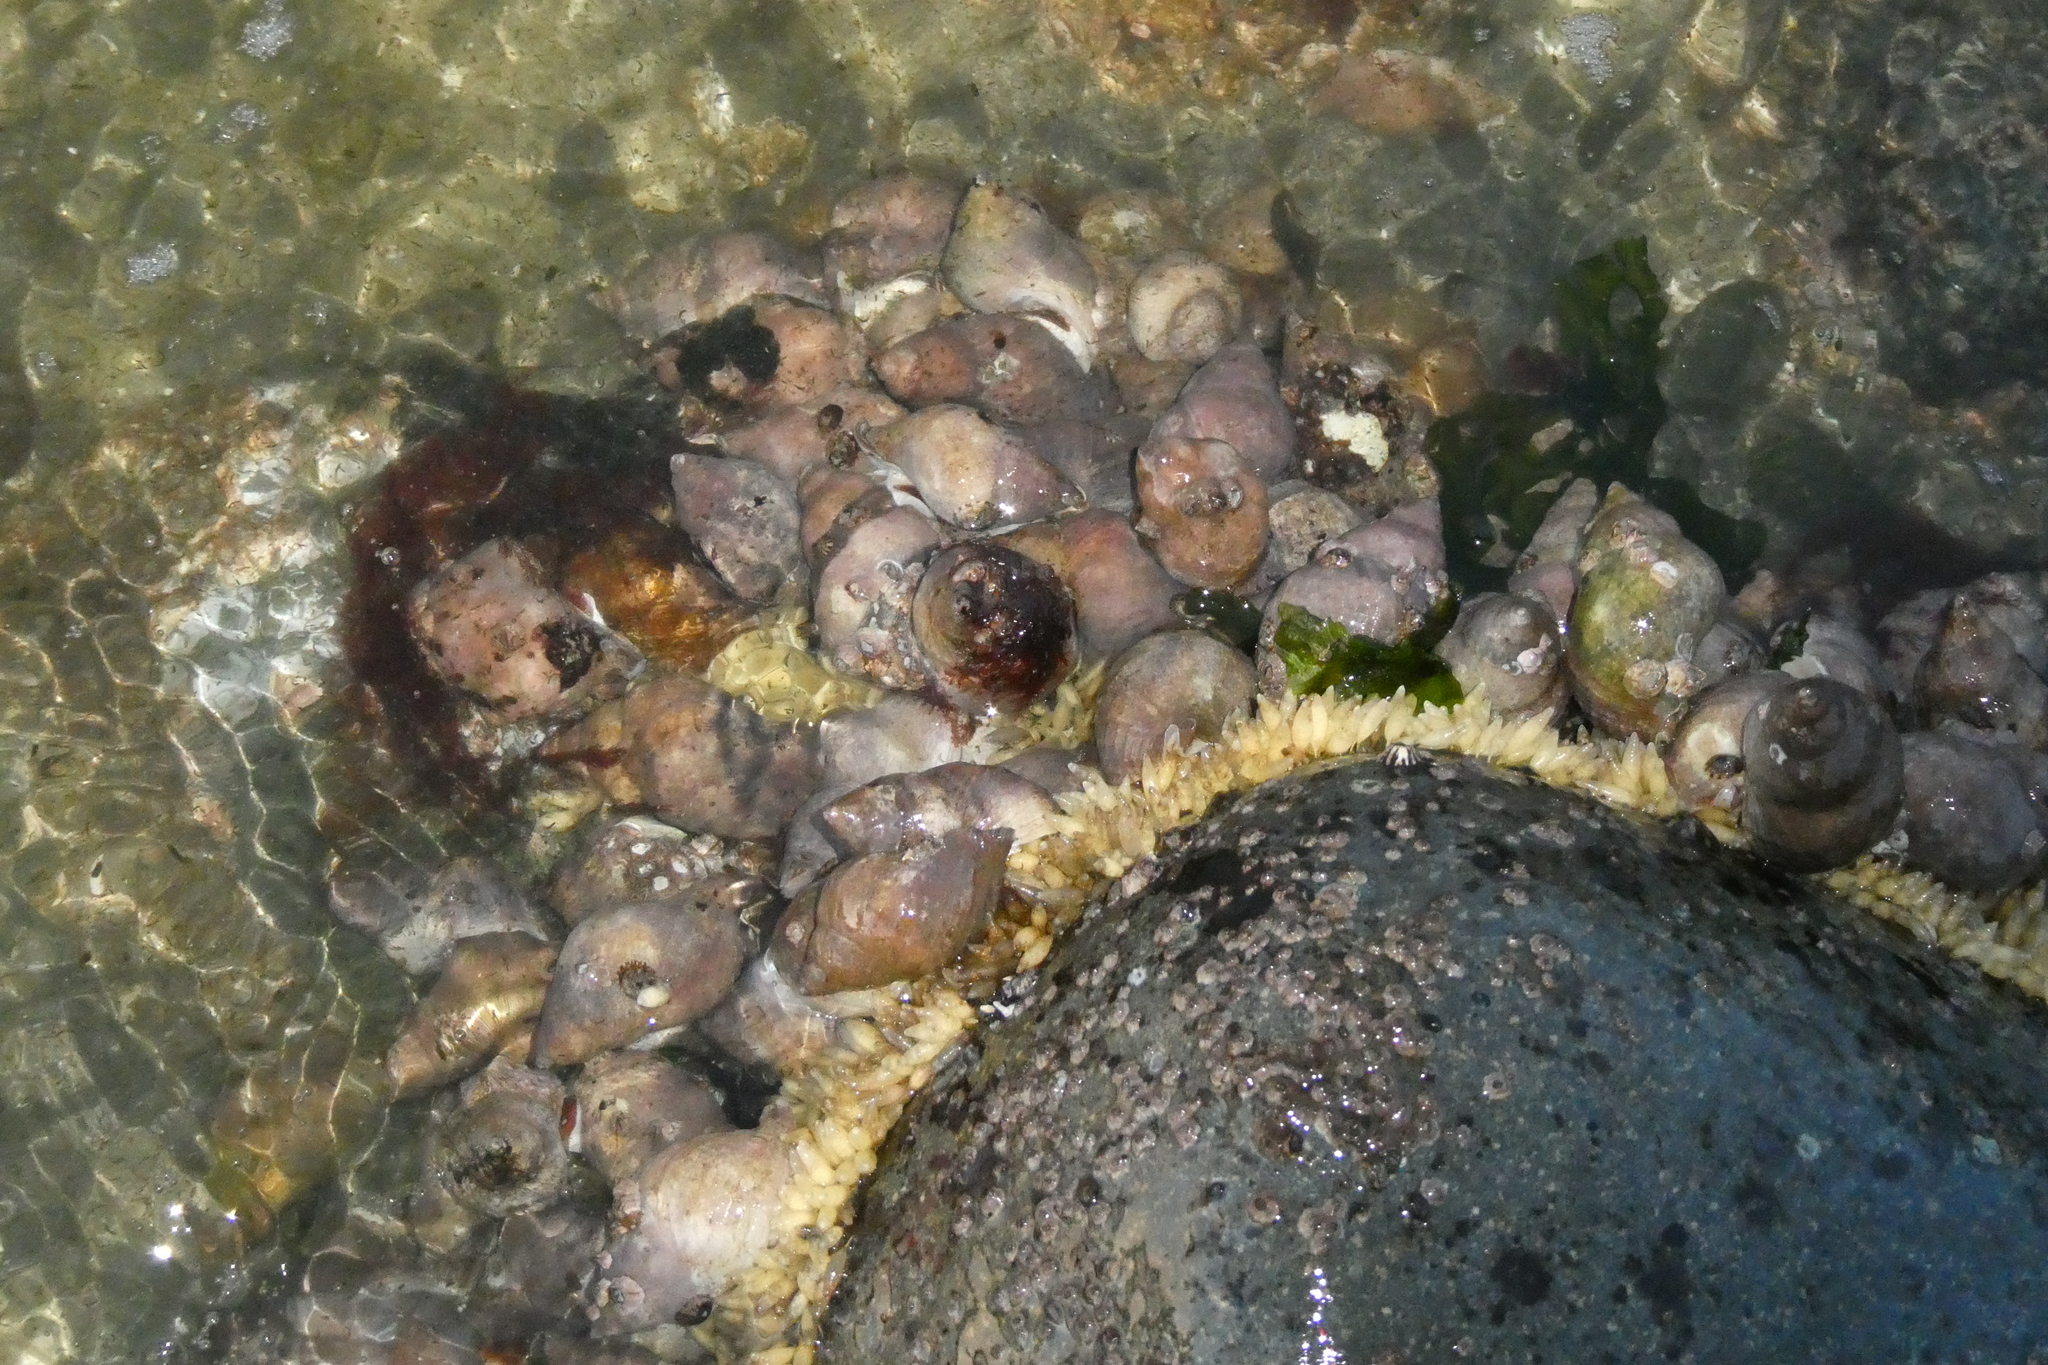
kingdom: Animalia
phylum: Mollusca
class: Gastropoda
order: Neogastropoda
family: Muricidae
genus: Nucella
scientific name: Nucella lamellosa
